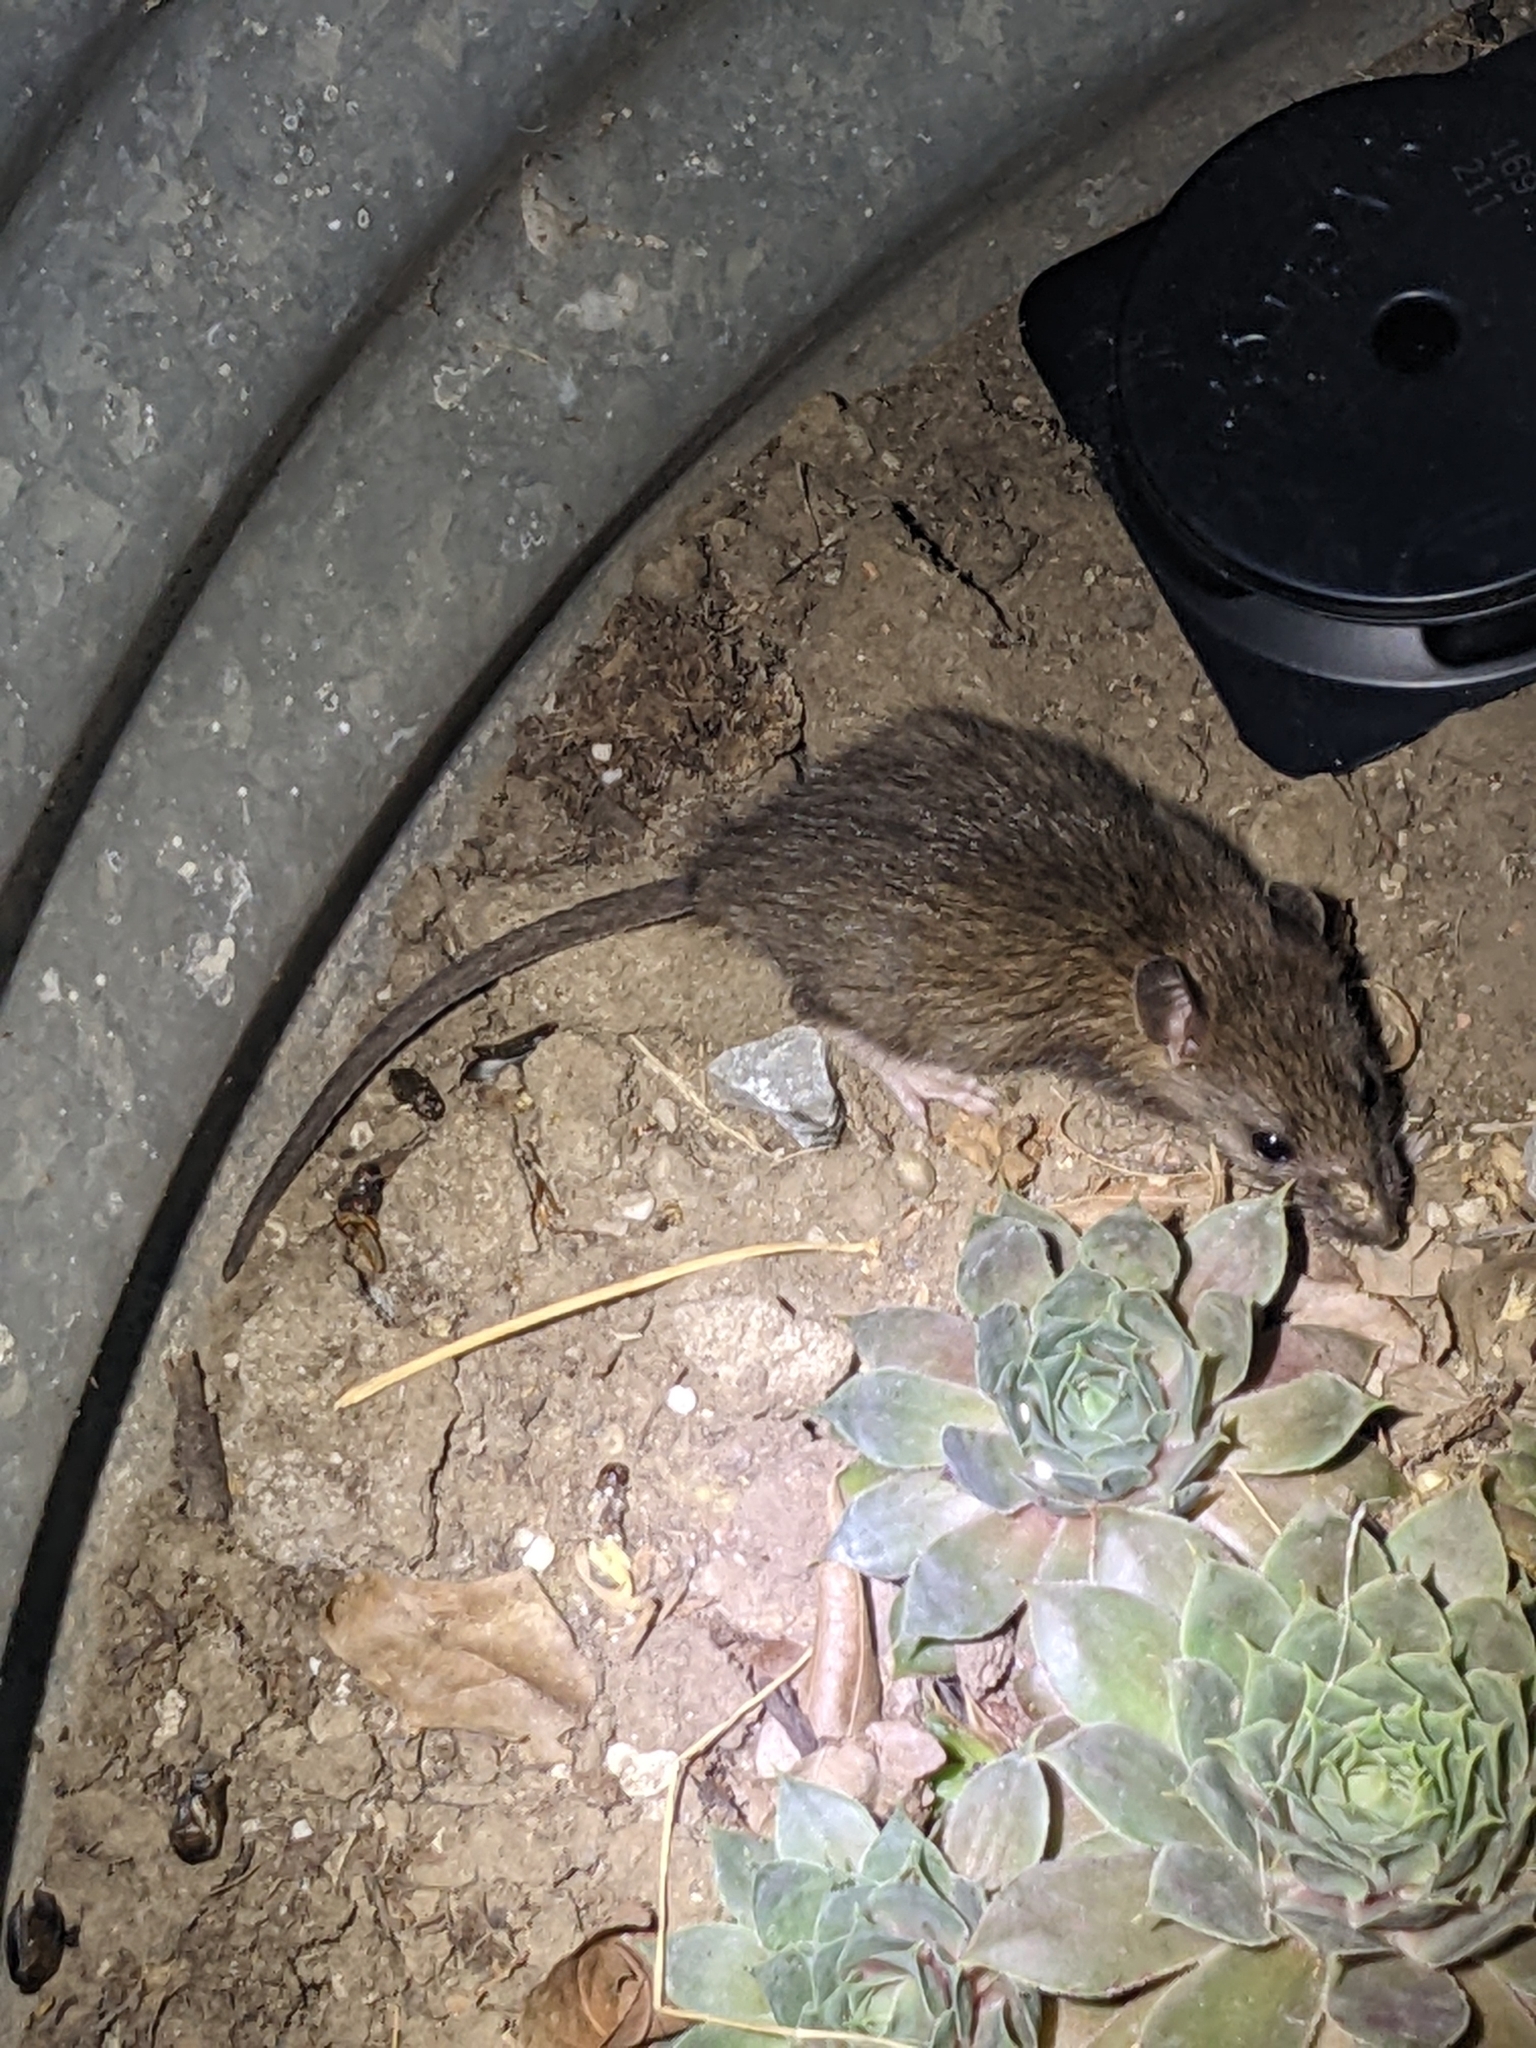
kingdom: Animalia
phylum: Chordata
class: Mammalia
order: Rodentia
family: Muridae
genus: Rattus
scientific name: Rattus norvegicus
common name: Brown rat
